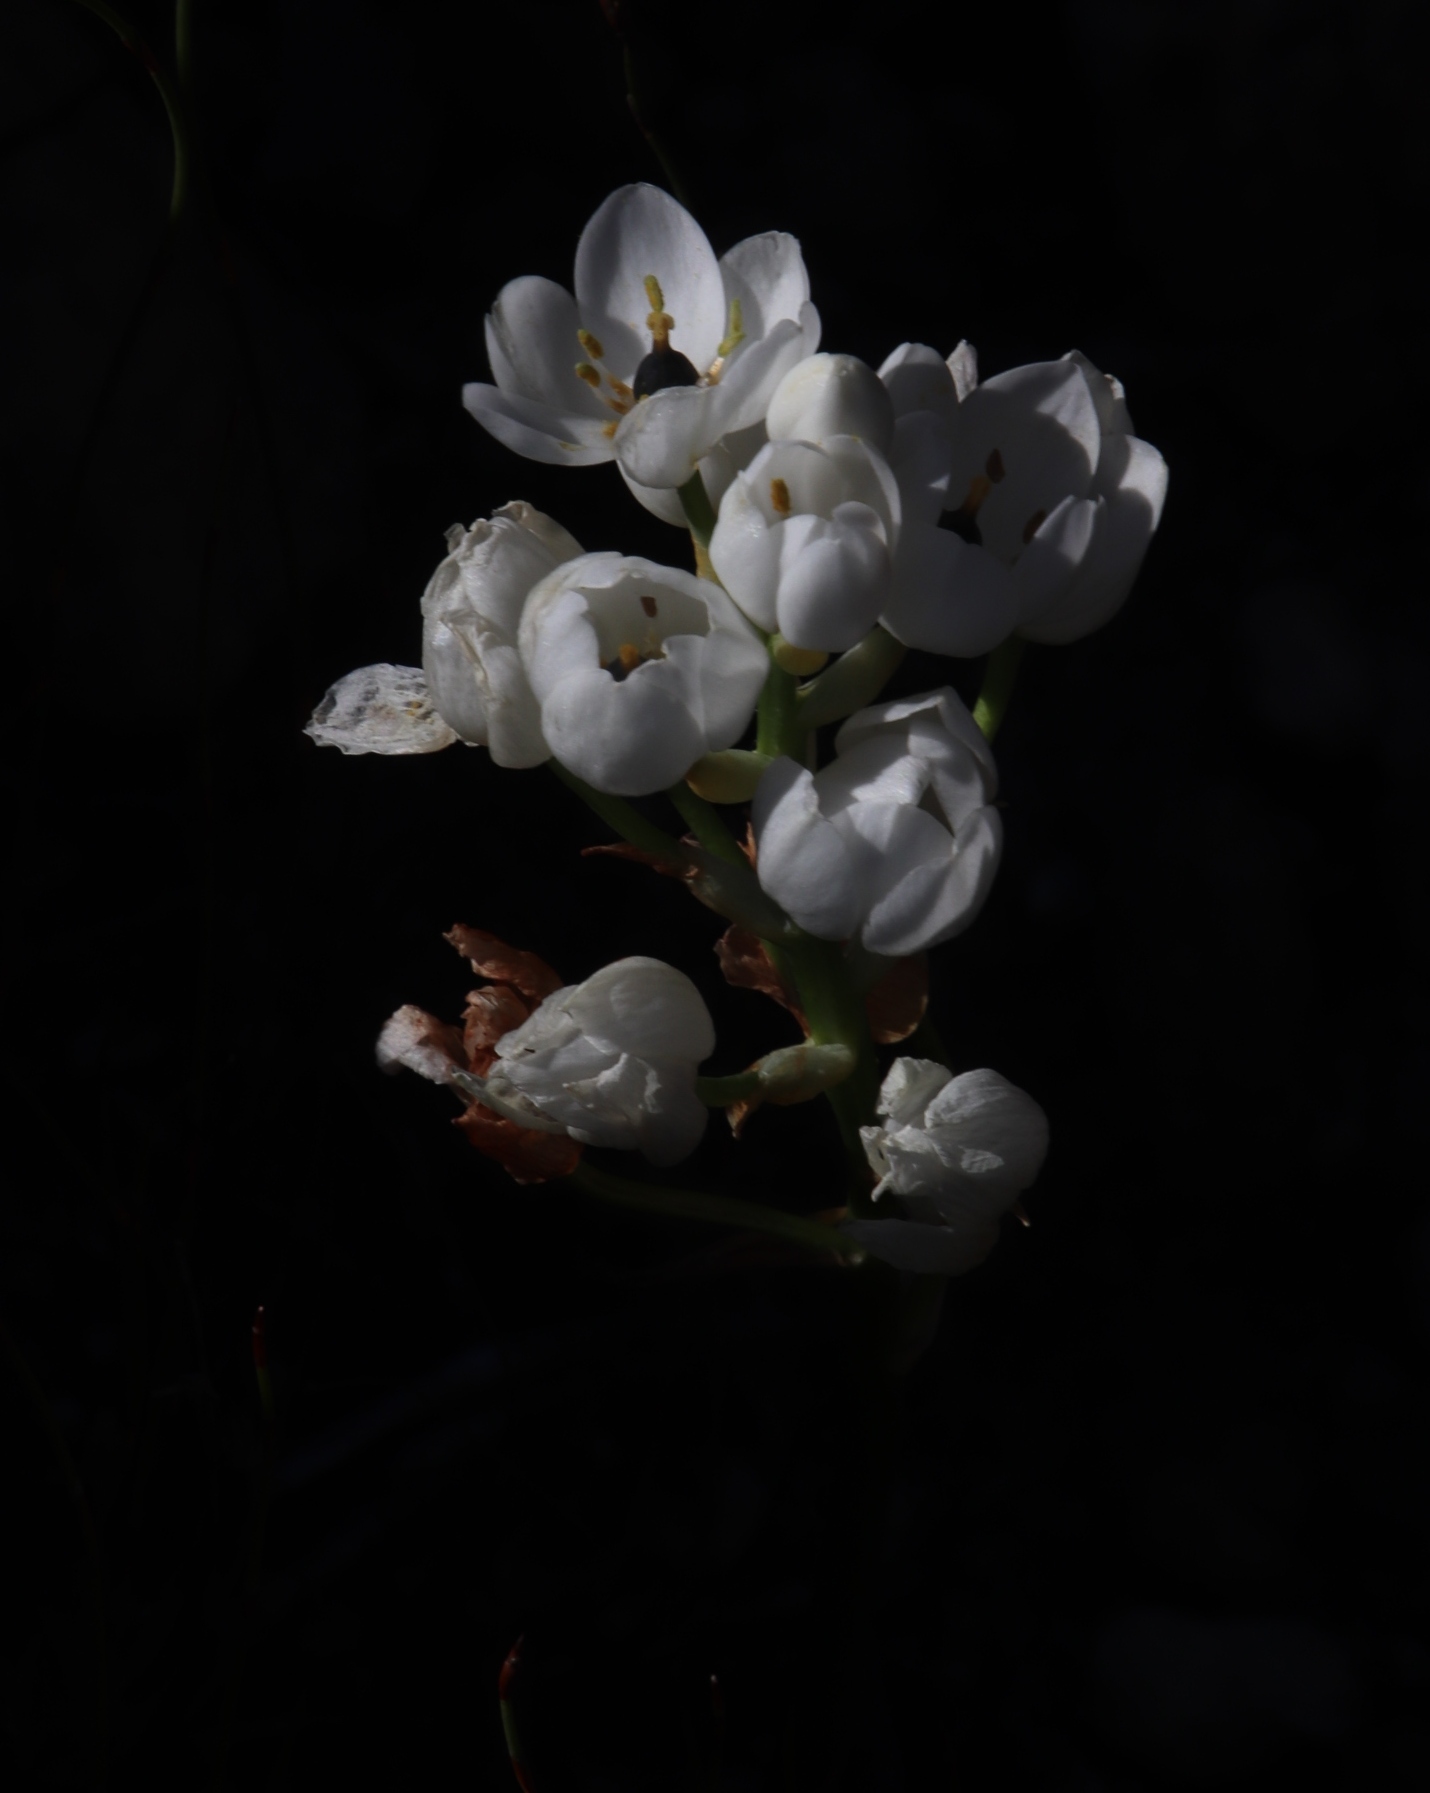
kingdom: Plantae
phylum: Tracheophyta
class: Liliopsida
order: Asparagales
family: Asparagaceae
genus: Ornithogalum
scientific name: Ornithogalum thyrsoides
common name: Chincherinchee
